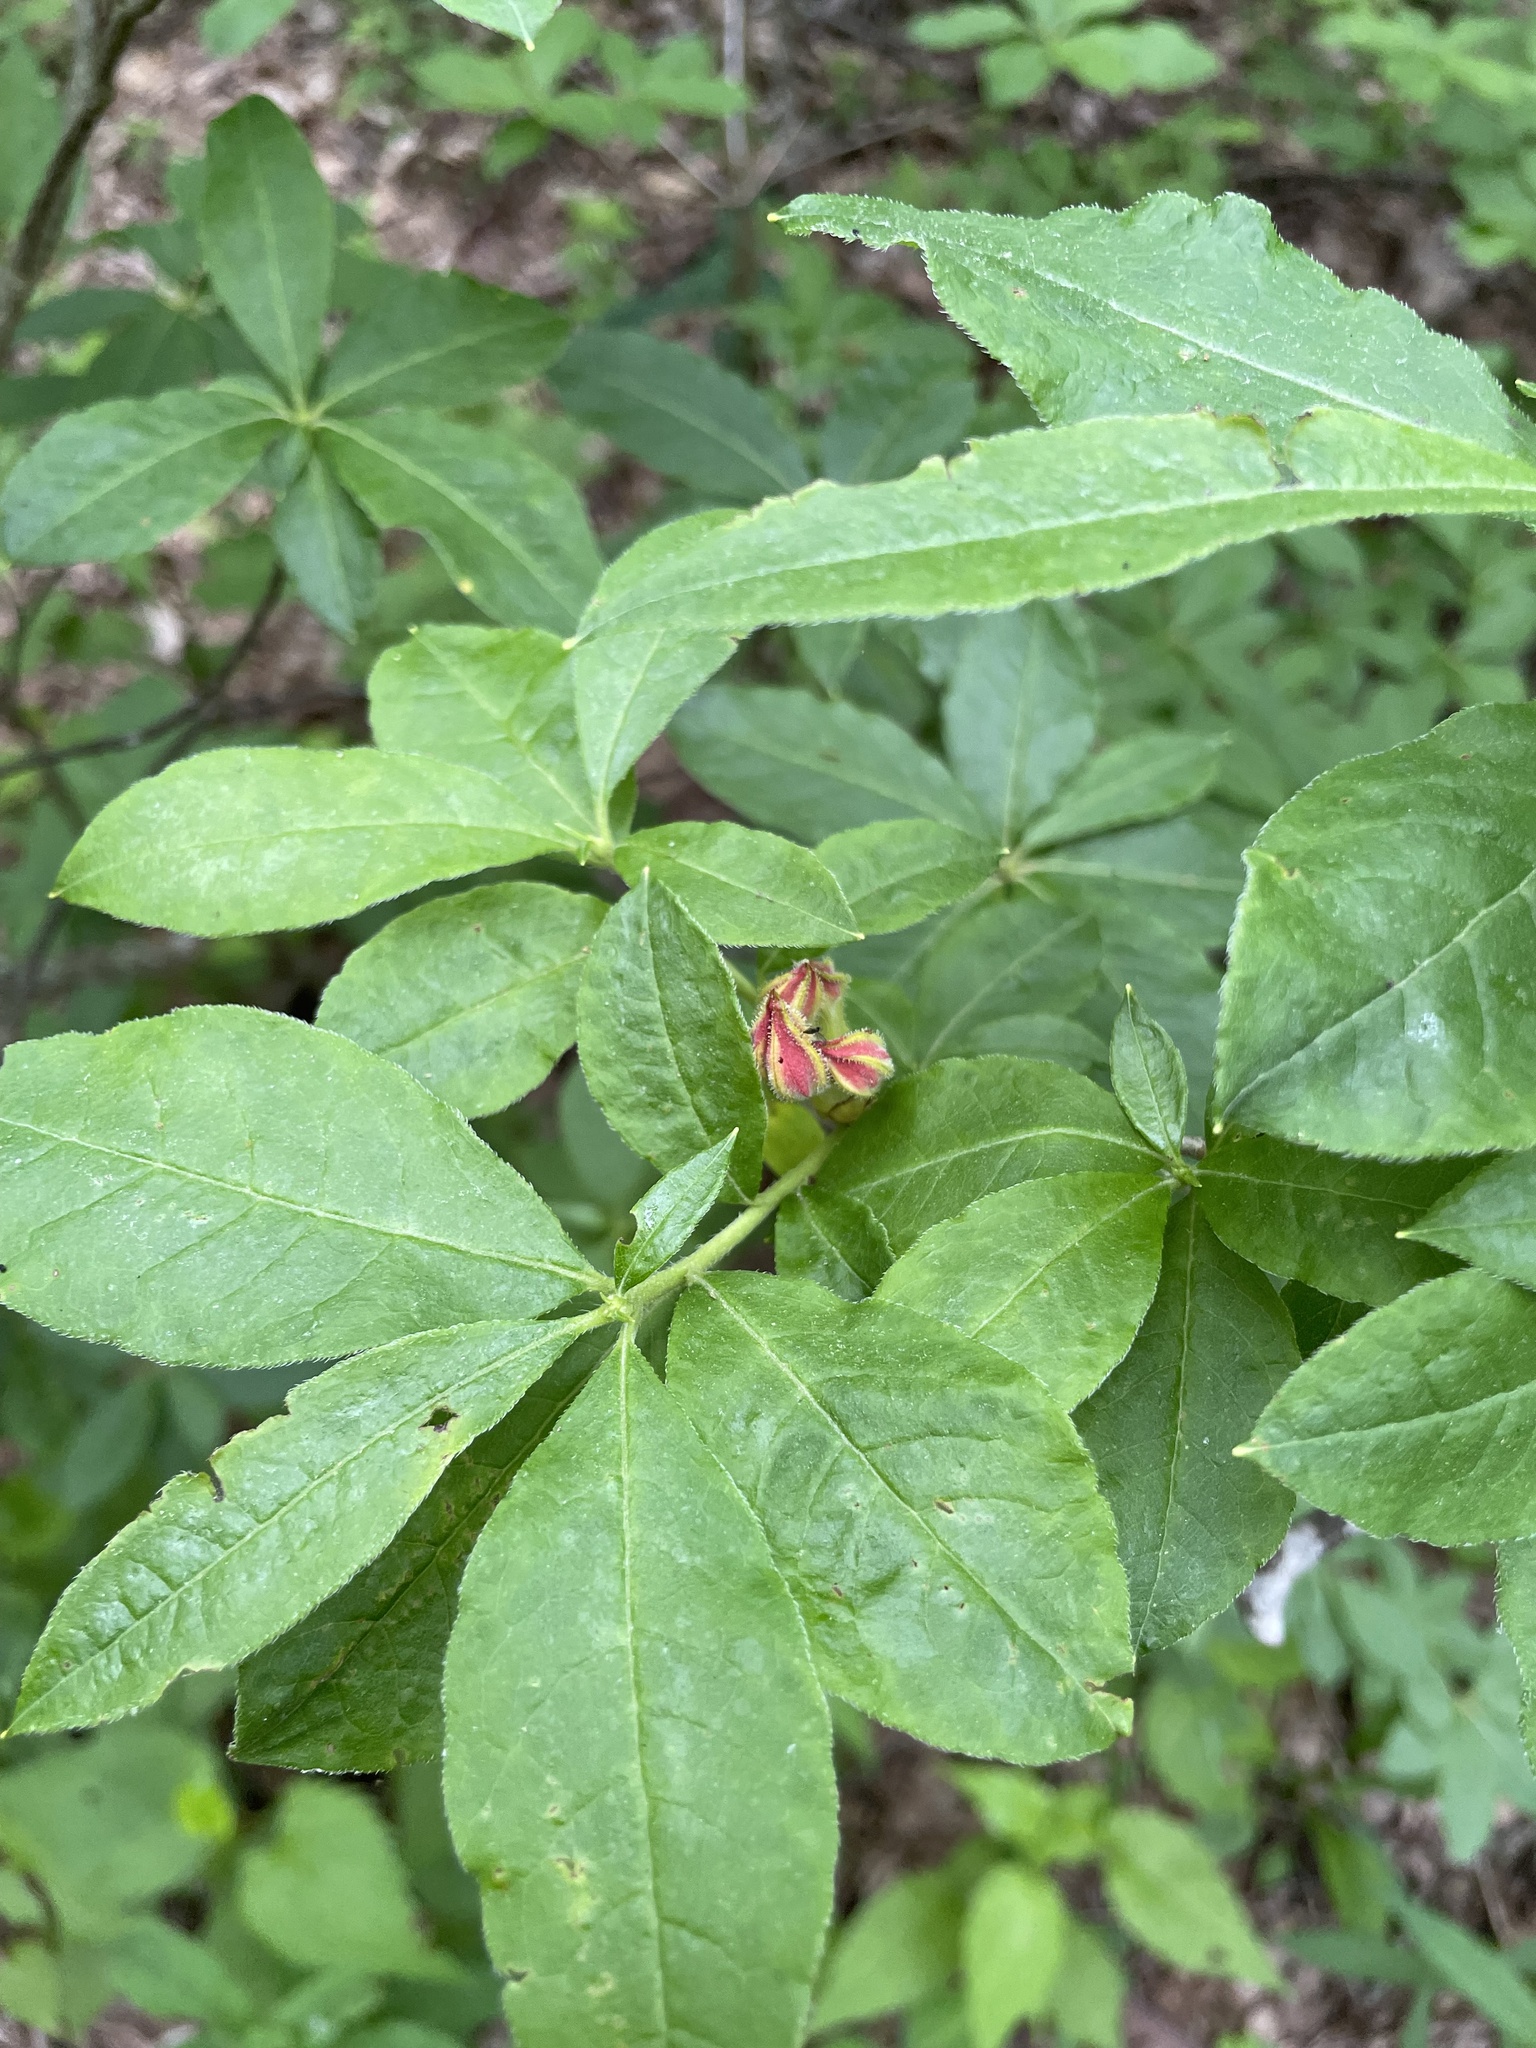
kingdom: Plantae
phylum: Tracheophyta
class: Magnoliopsida
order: Ericales
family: Ericaceae
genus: Rhododendron
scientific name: Rhododendron calendulaceum
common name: Flame azalea
